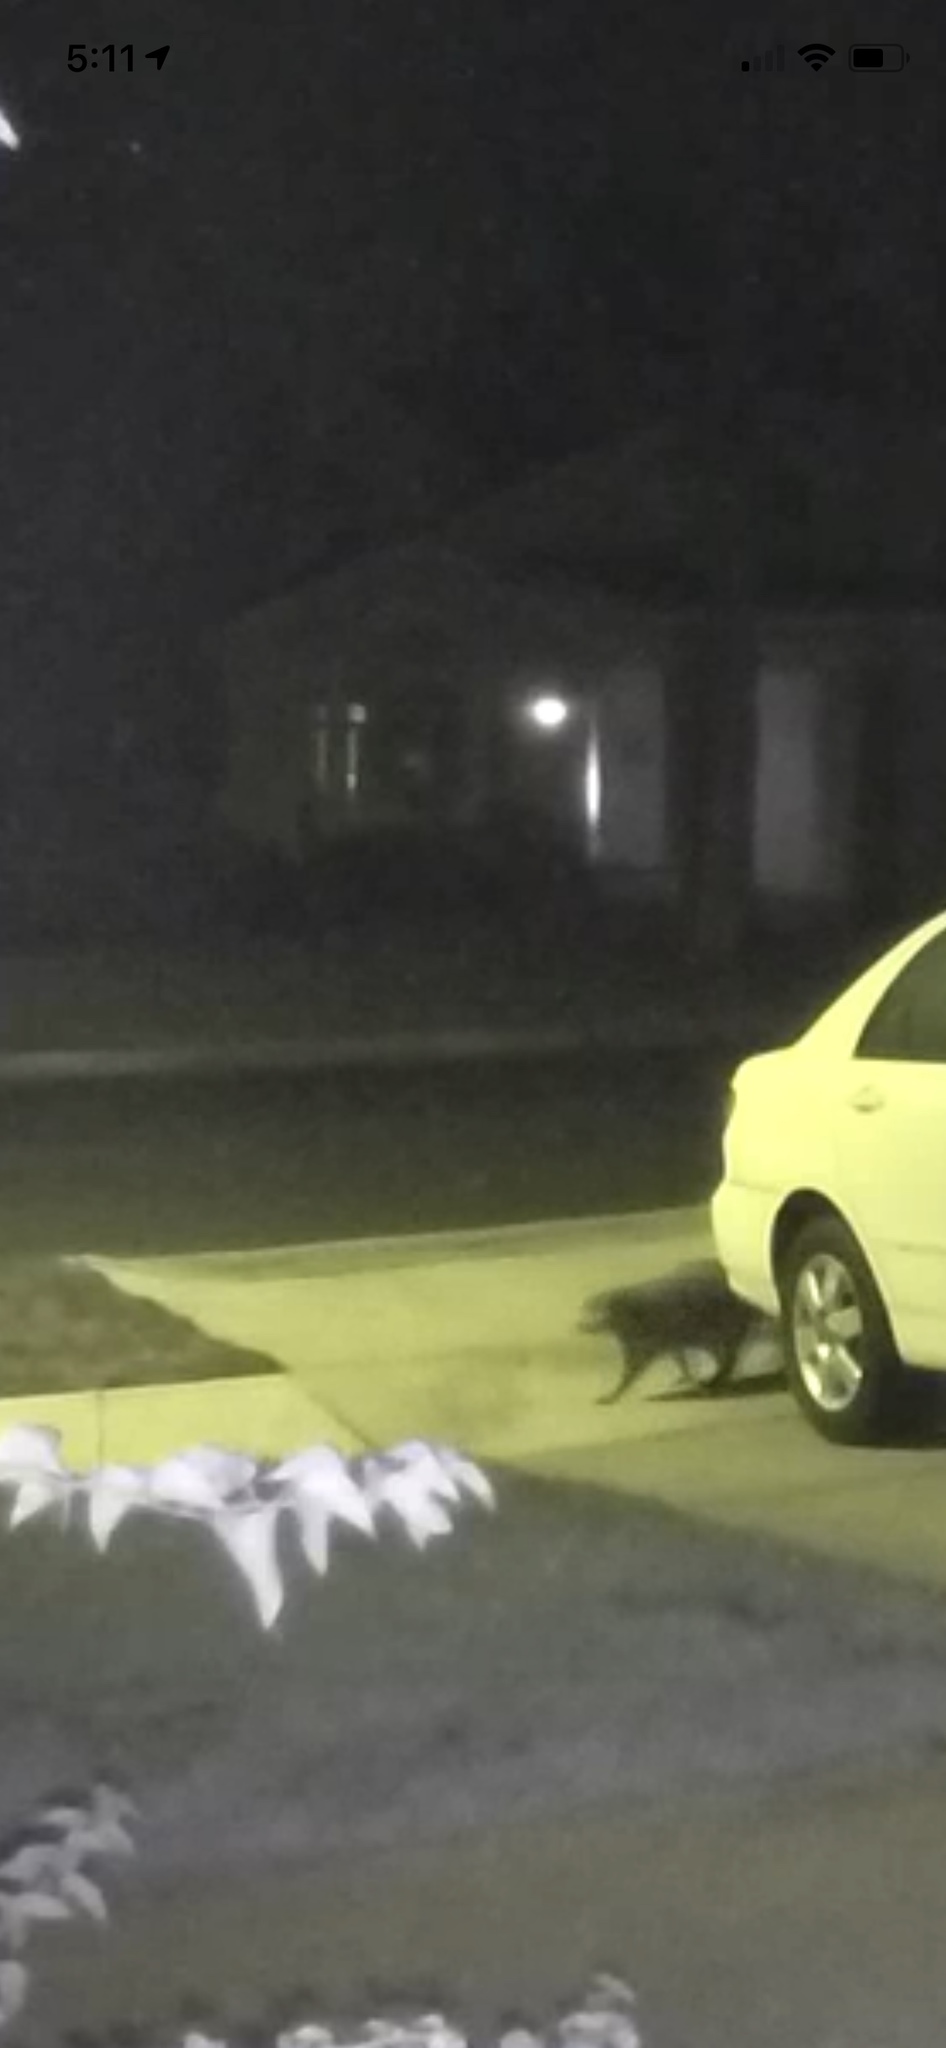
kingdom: Animalia
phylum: Chordata
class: Mammalia
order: Carnivora
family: Procyonidae
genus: Procyon
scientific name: Procyon lotor
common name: Raccoon
